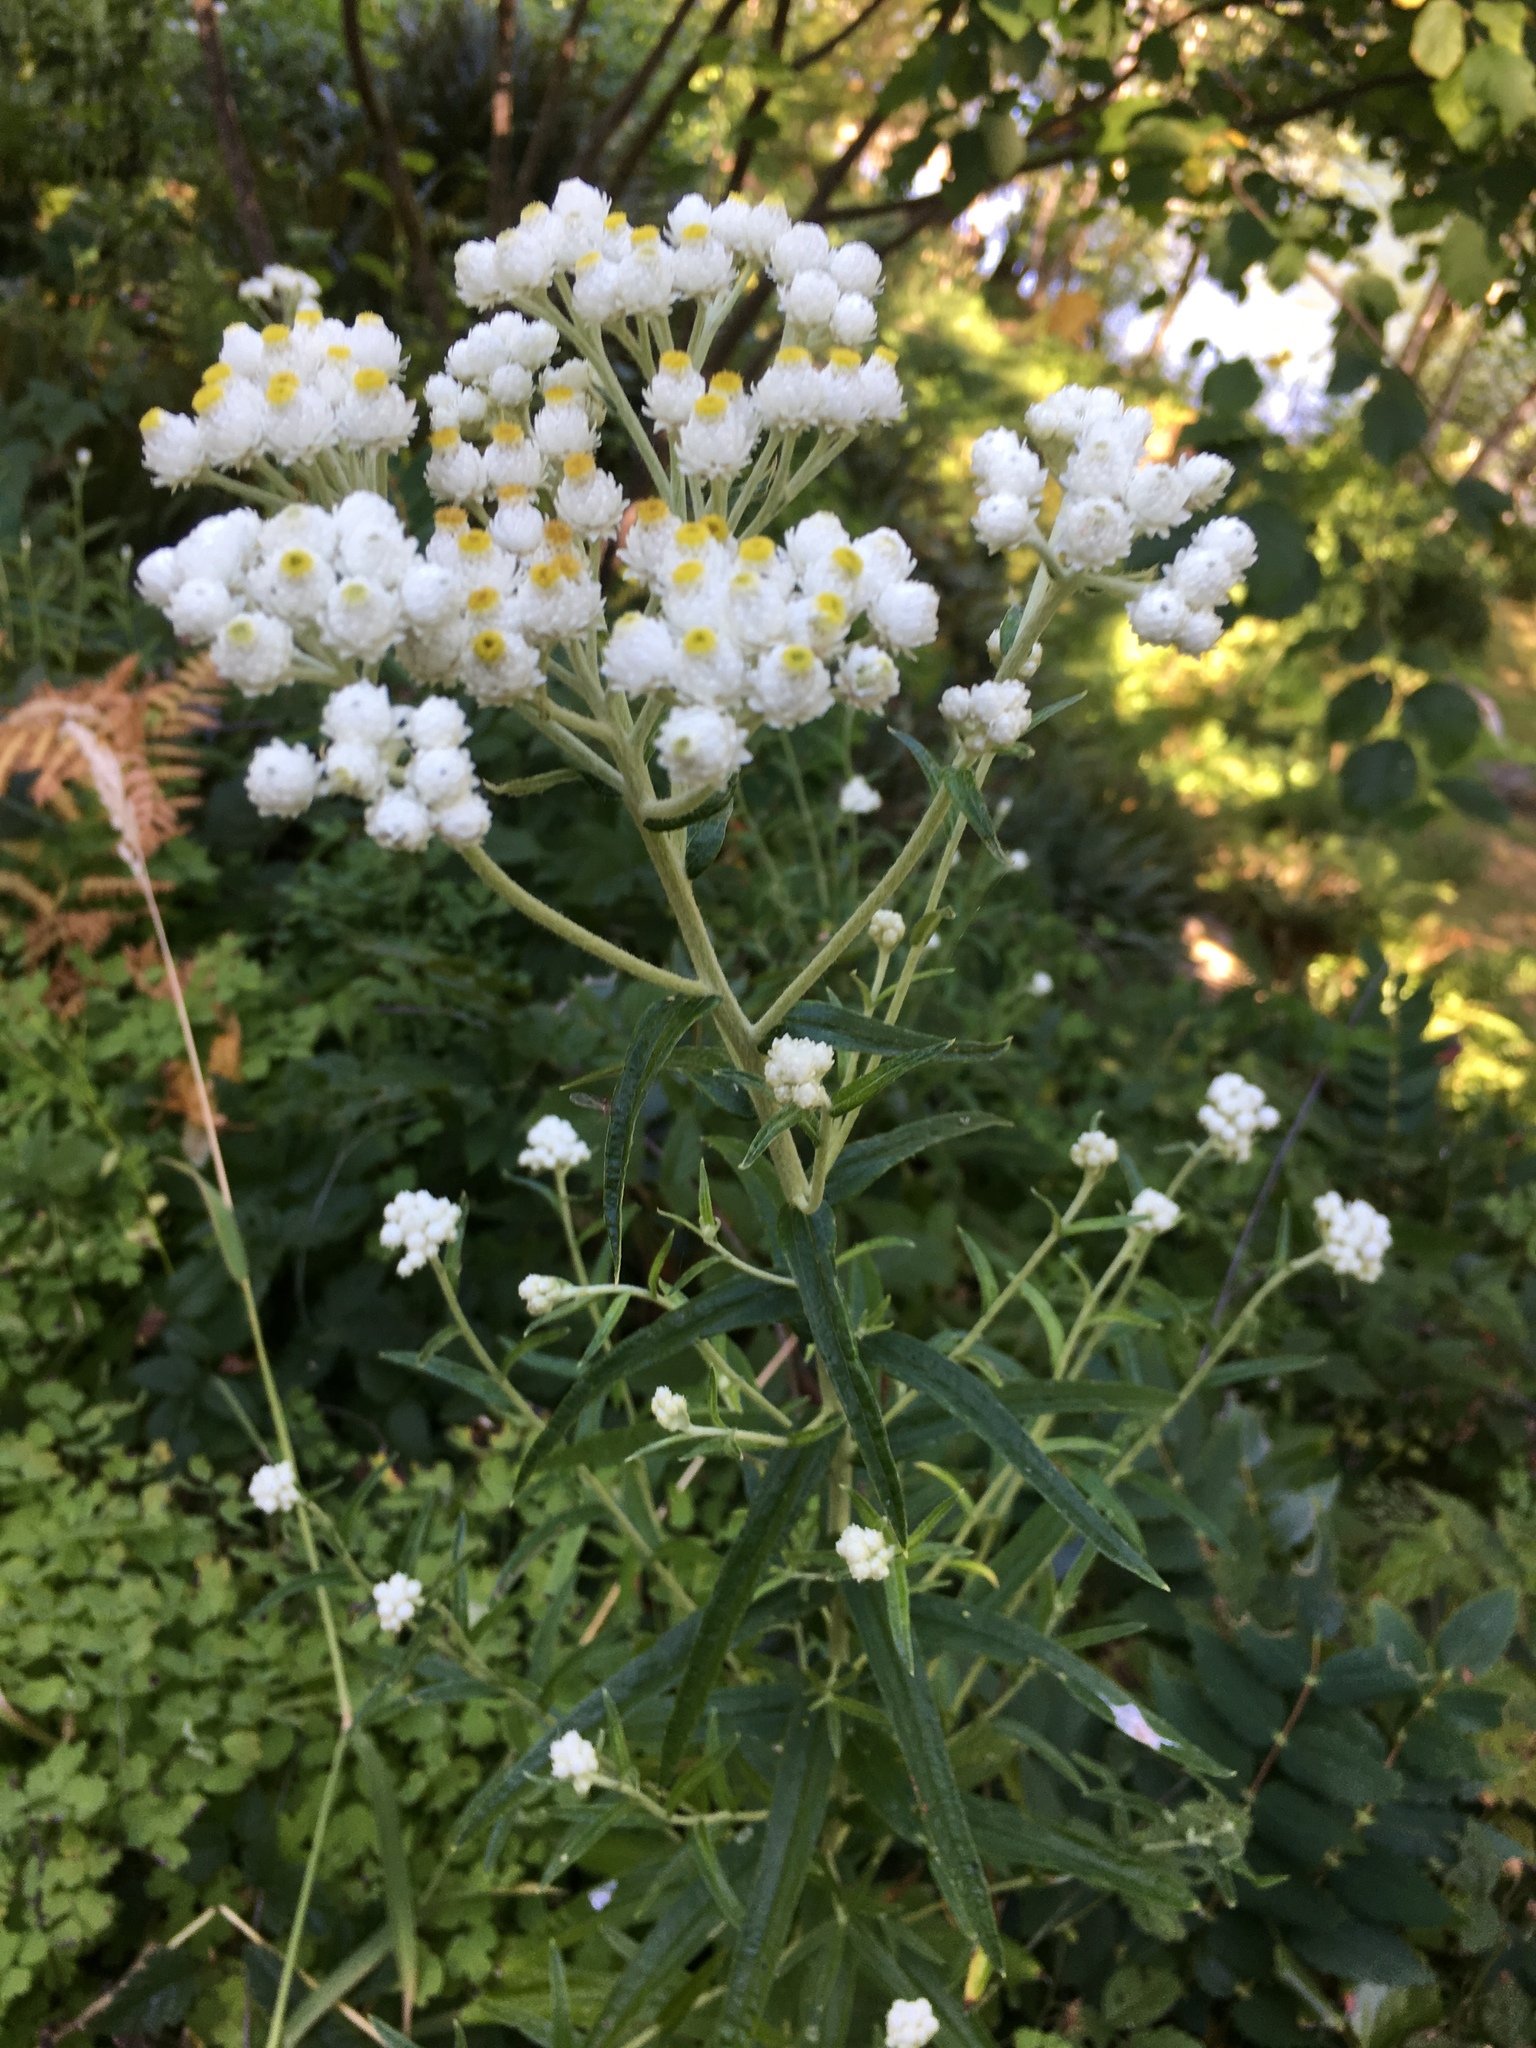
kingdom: Plantae
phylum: Tracheophyta
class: Magnoliopsida
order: Asterales
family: Asteraceae
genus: Anaphalis
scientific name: Anaphalis margaritacea
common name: Pearly everlasting
